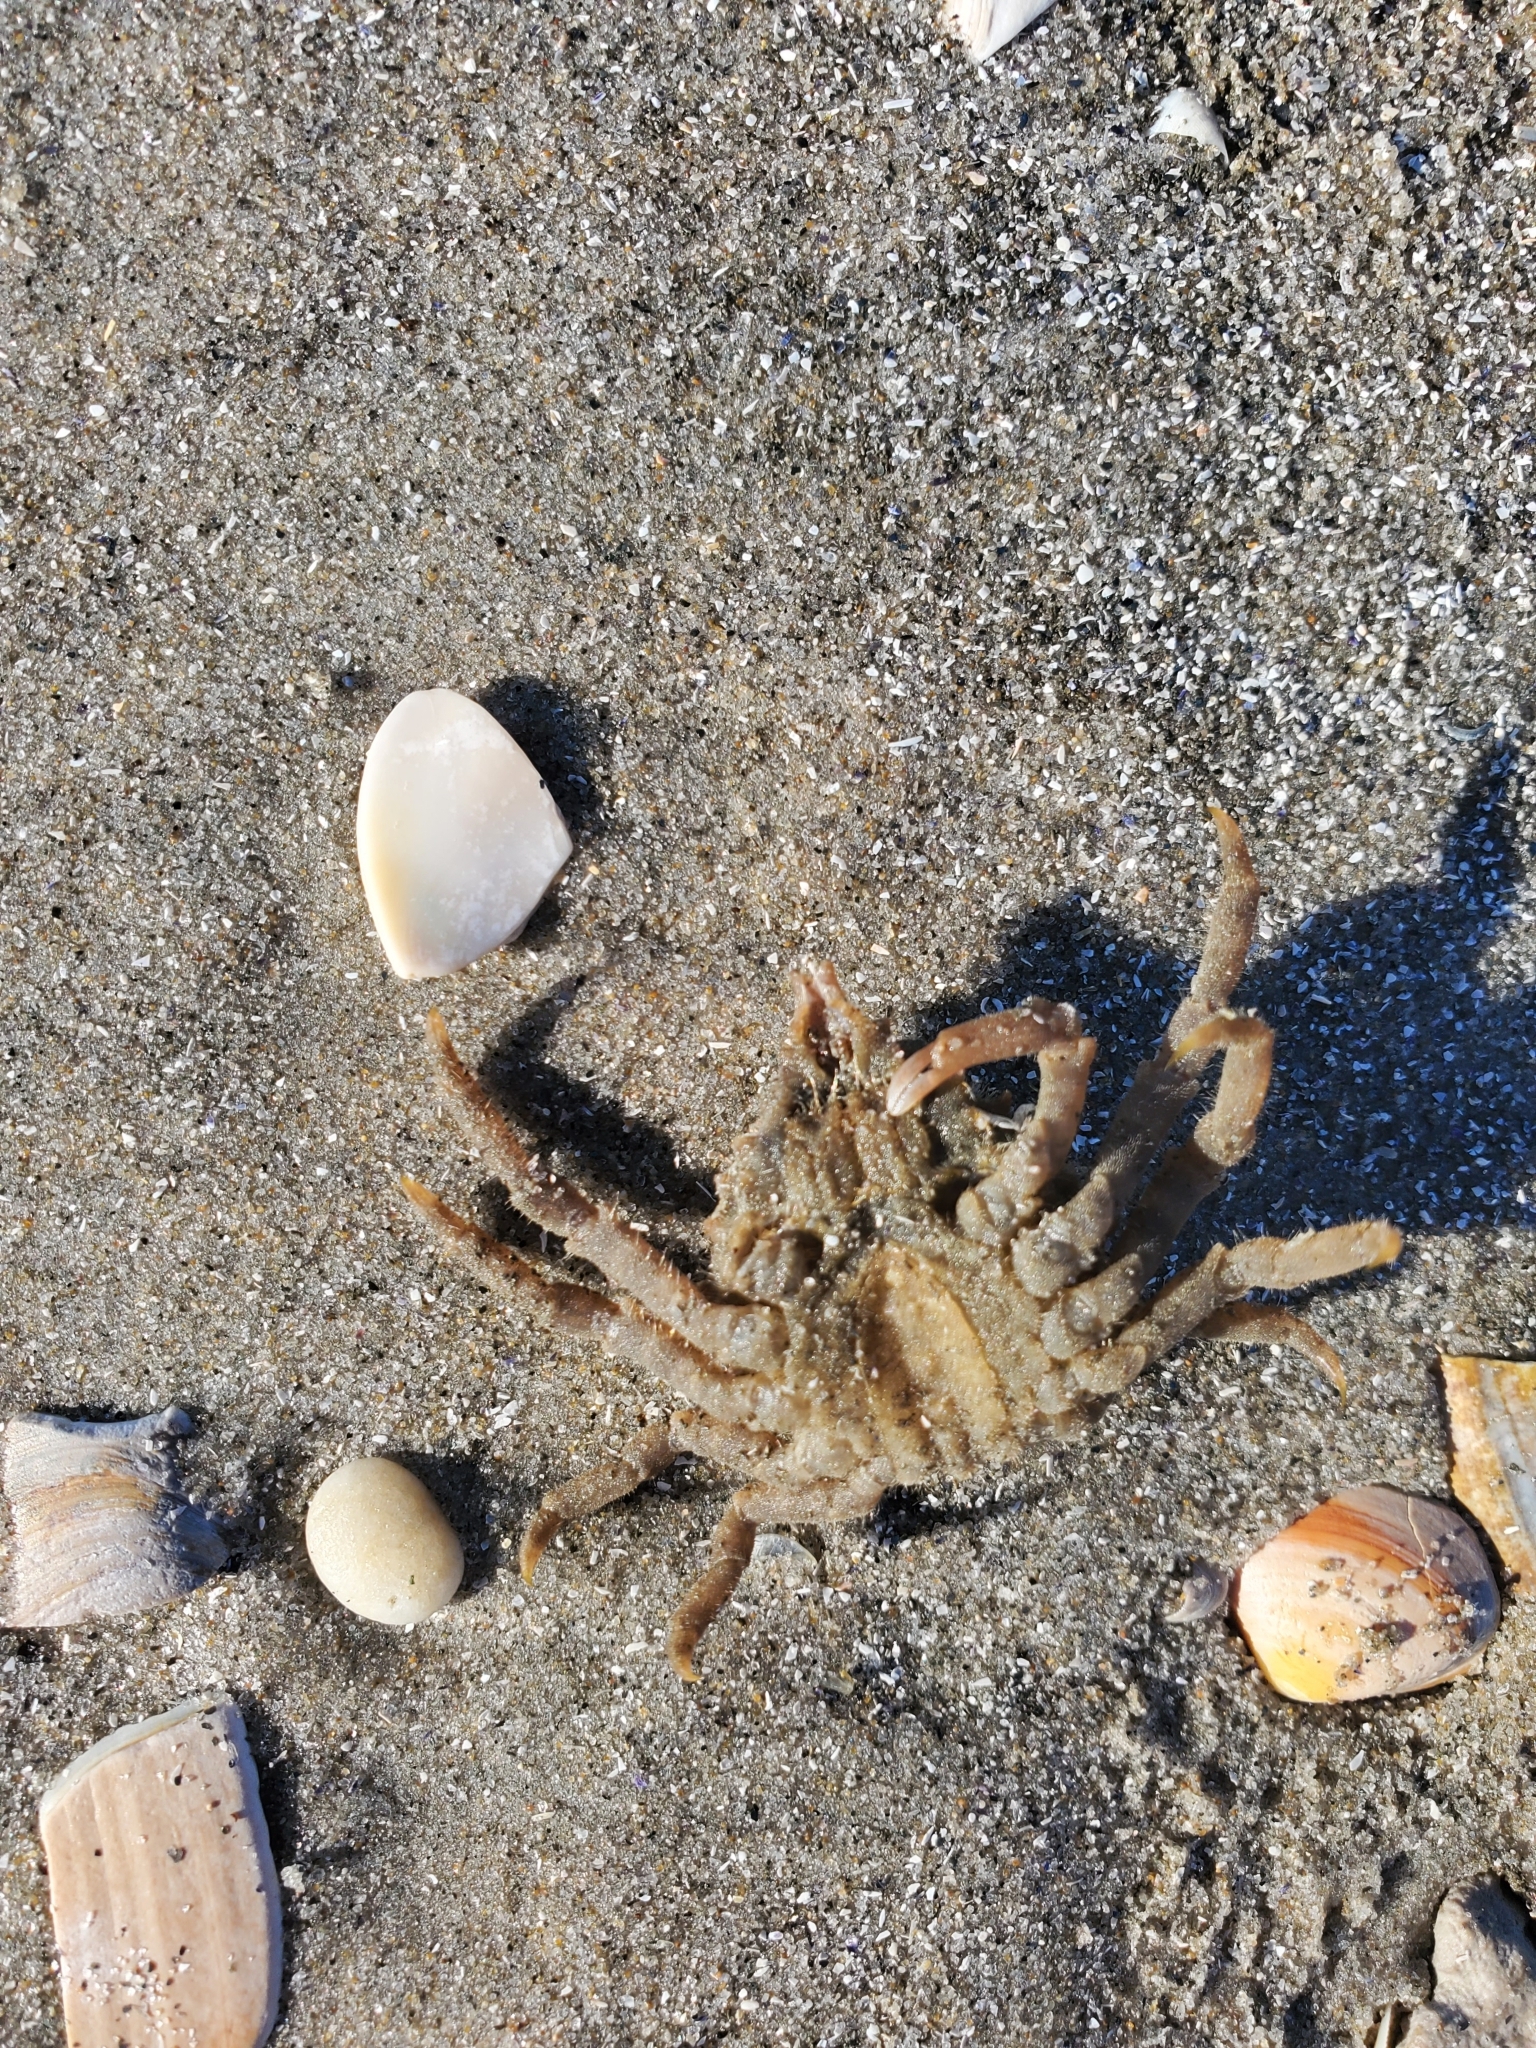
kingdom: Animalia
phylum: Arthropoda
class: Malacostraca
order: Decapoda
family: Epialtidae
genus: Libinia
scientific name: Libinia emarginata
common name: Common spider crab
